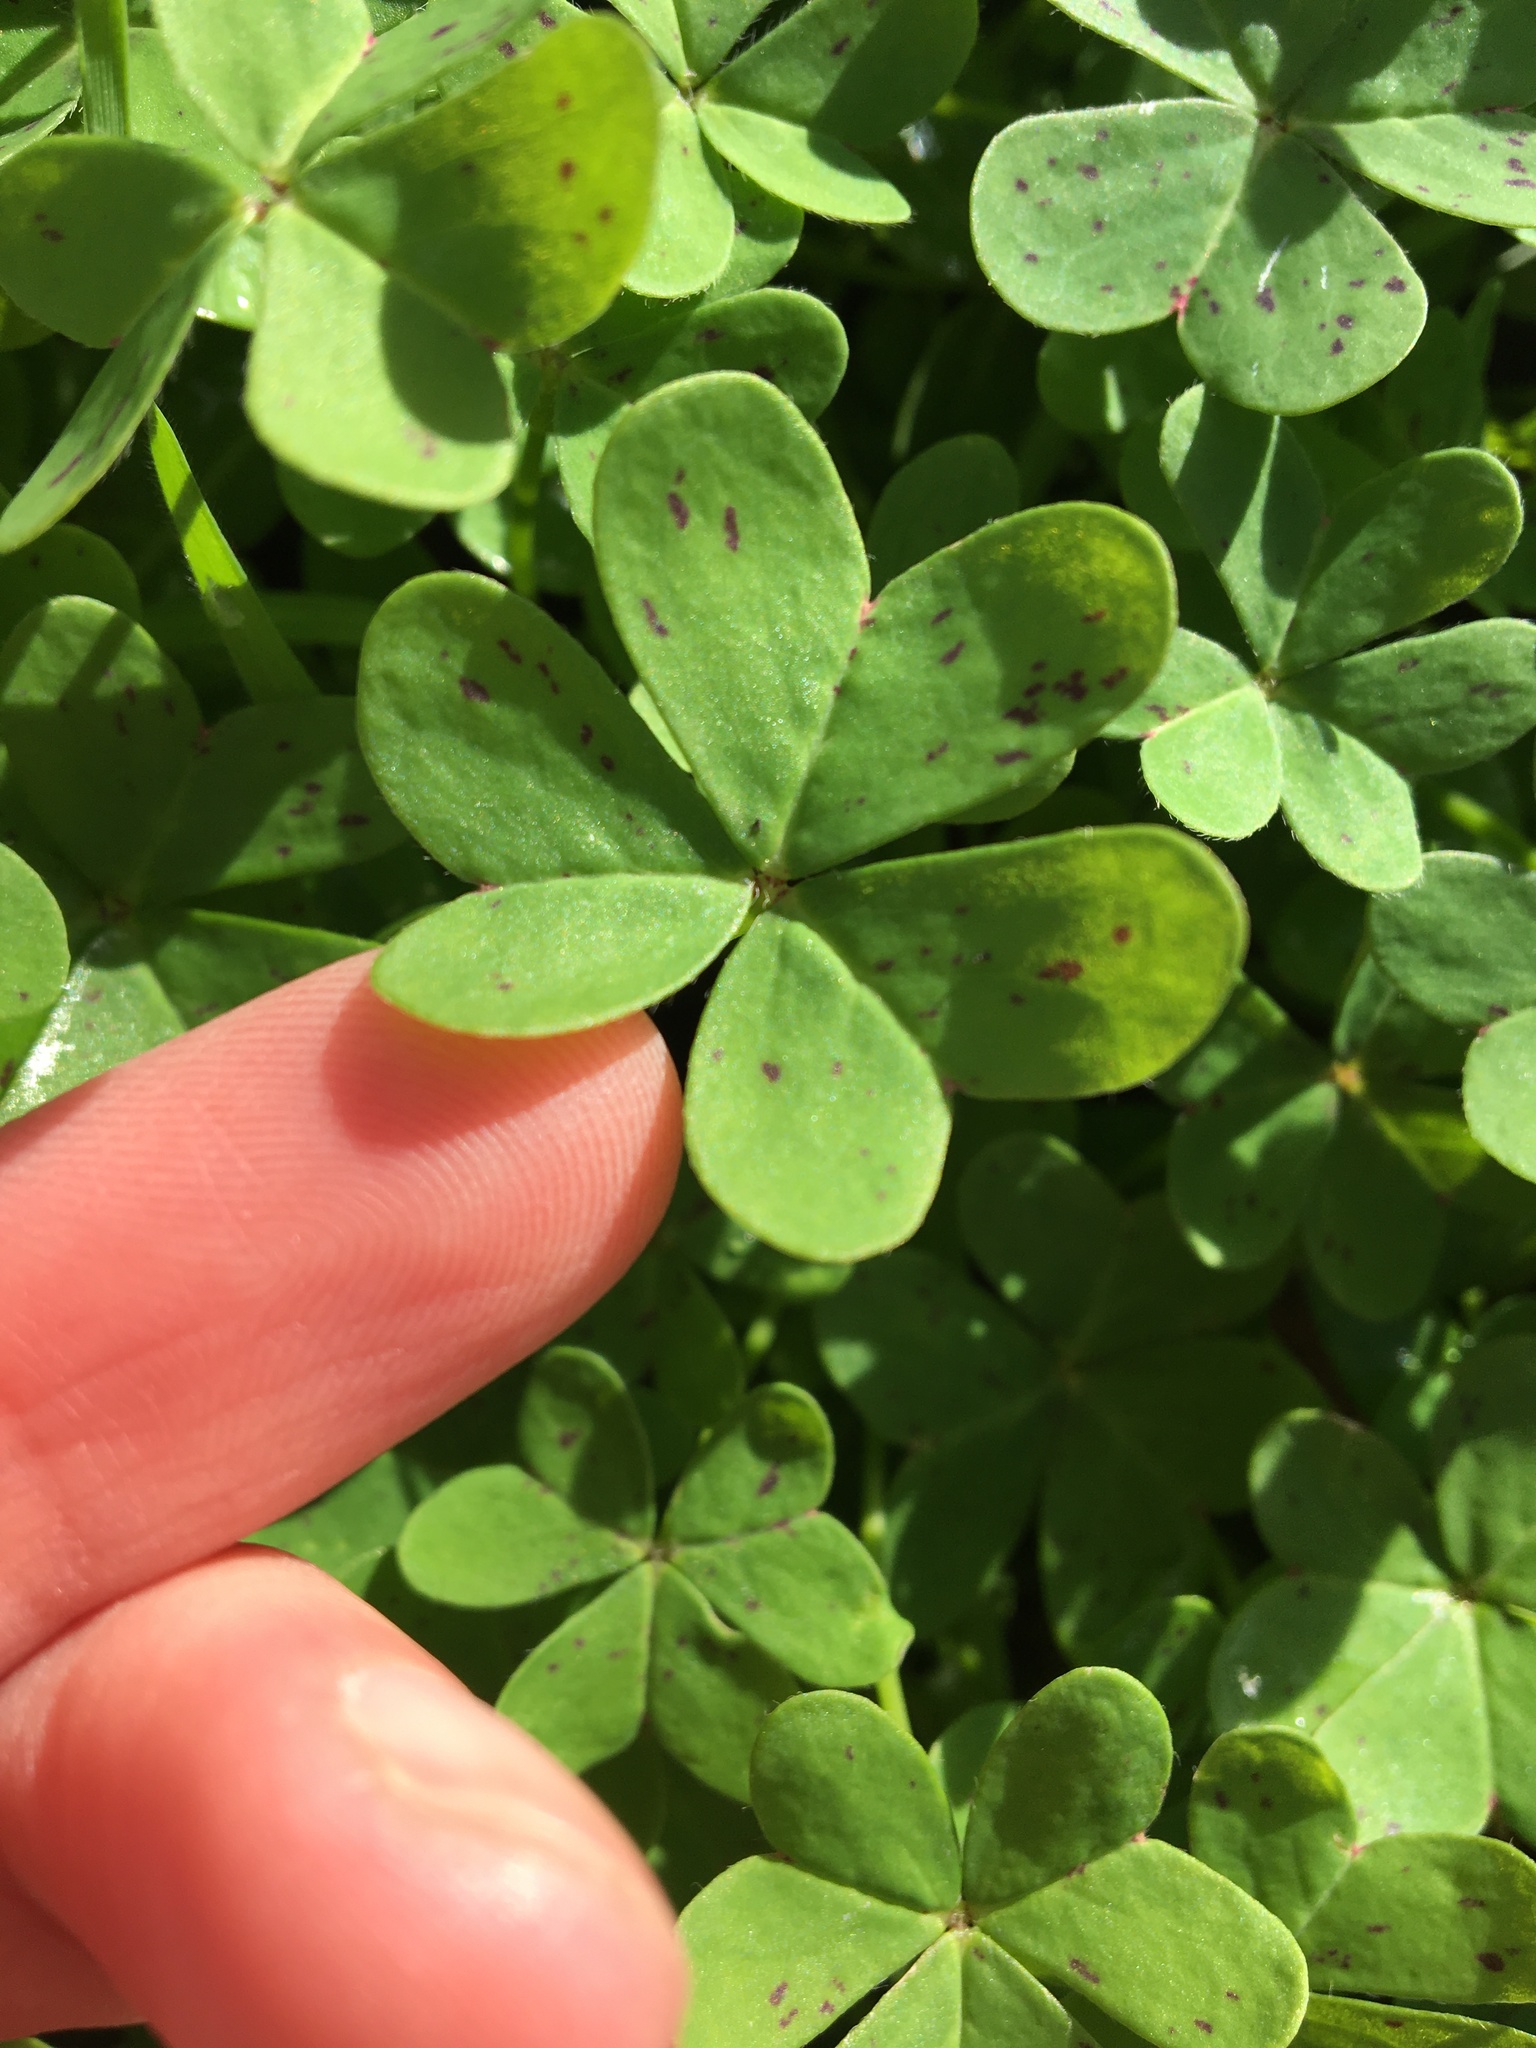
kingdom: Plantae
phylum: Tracheophyta
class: Magnoliopsida
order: Oxalidales
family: Oxalidaceae
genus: Oxalis
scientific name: Oxalis pes-caprae
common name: Bermuda-buttercup
